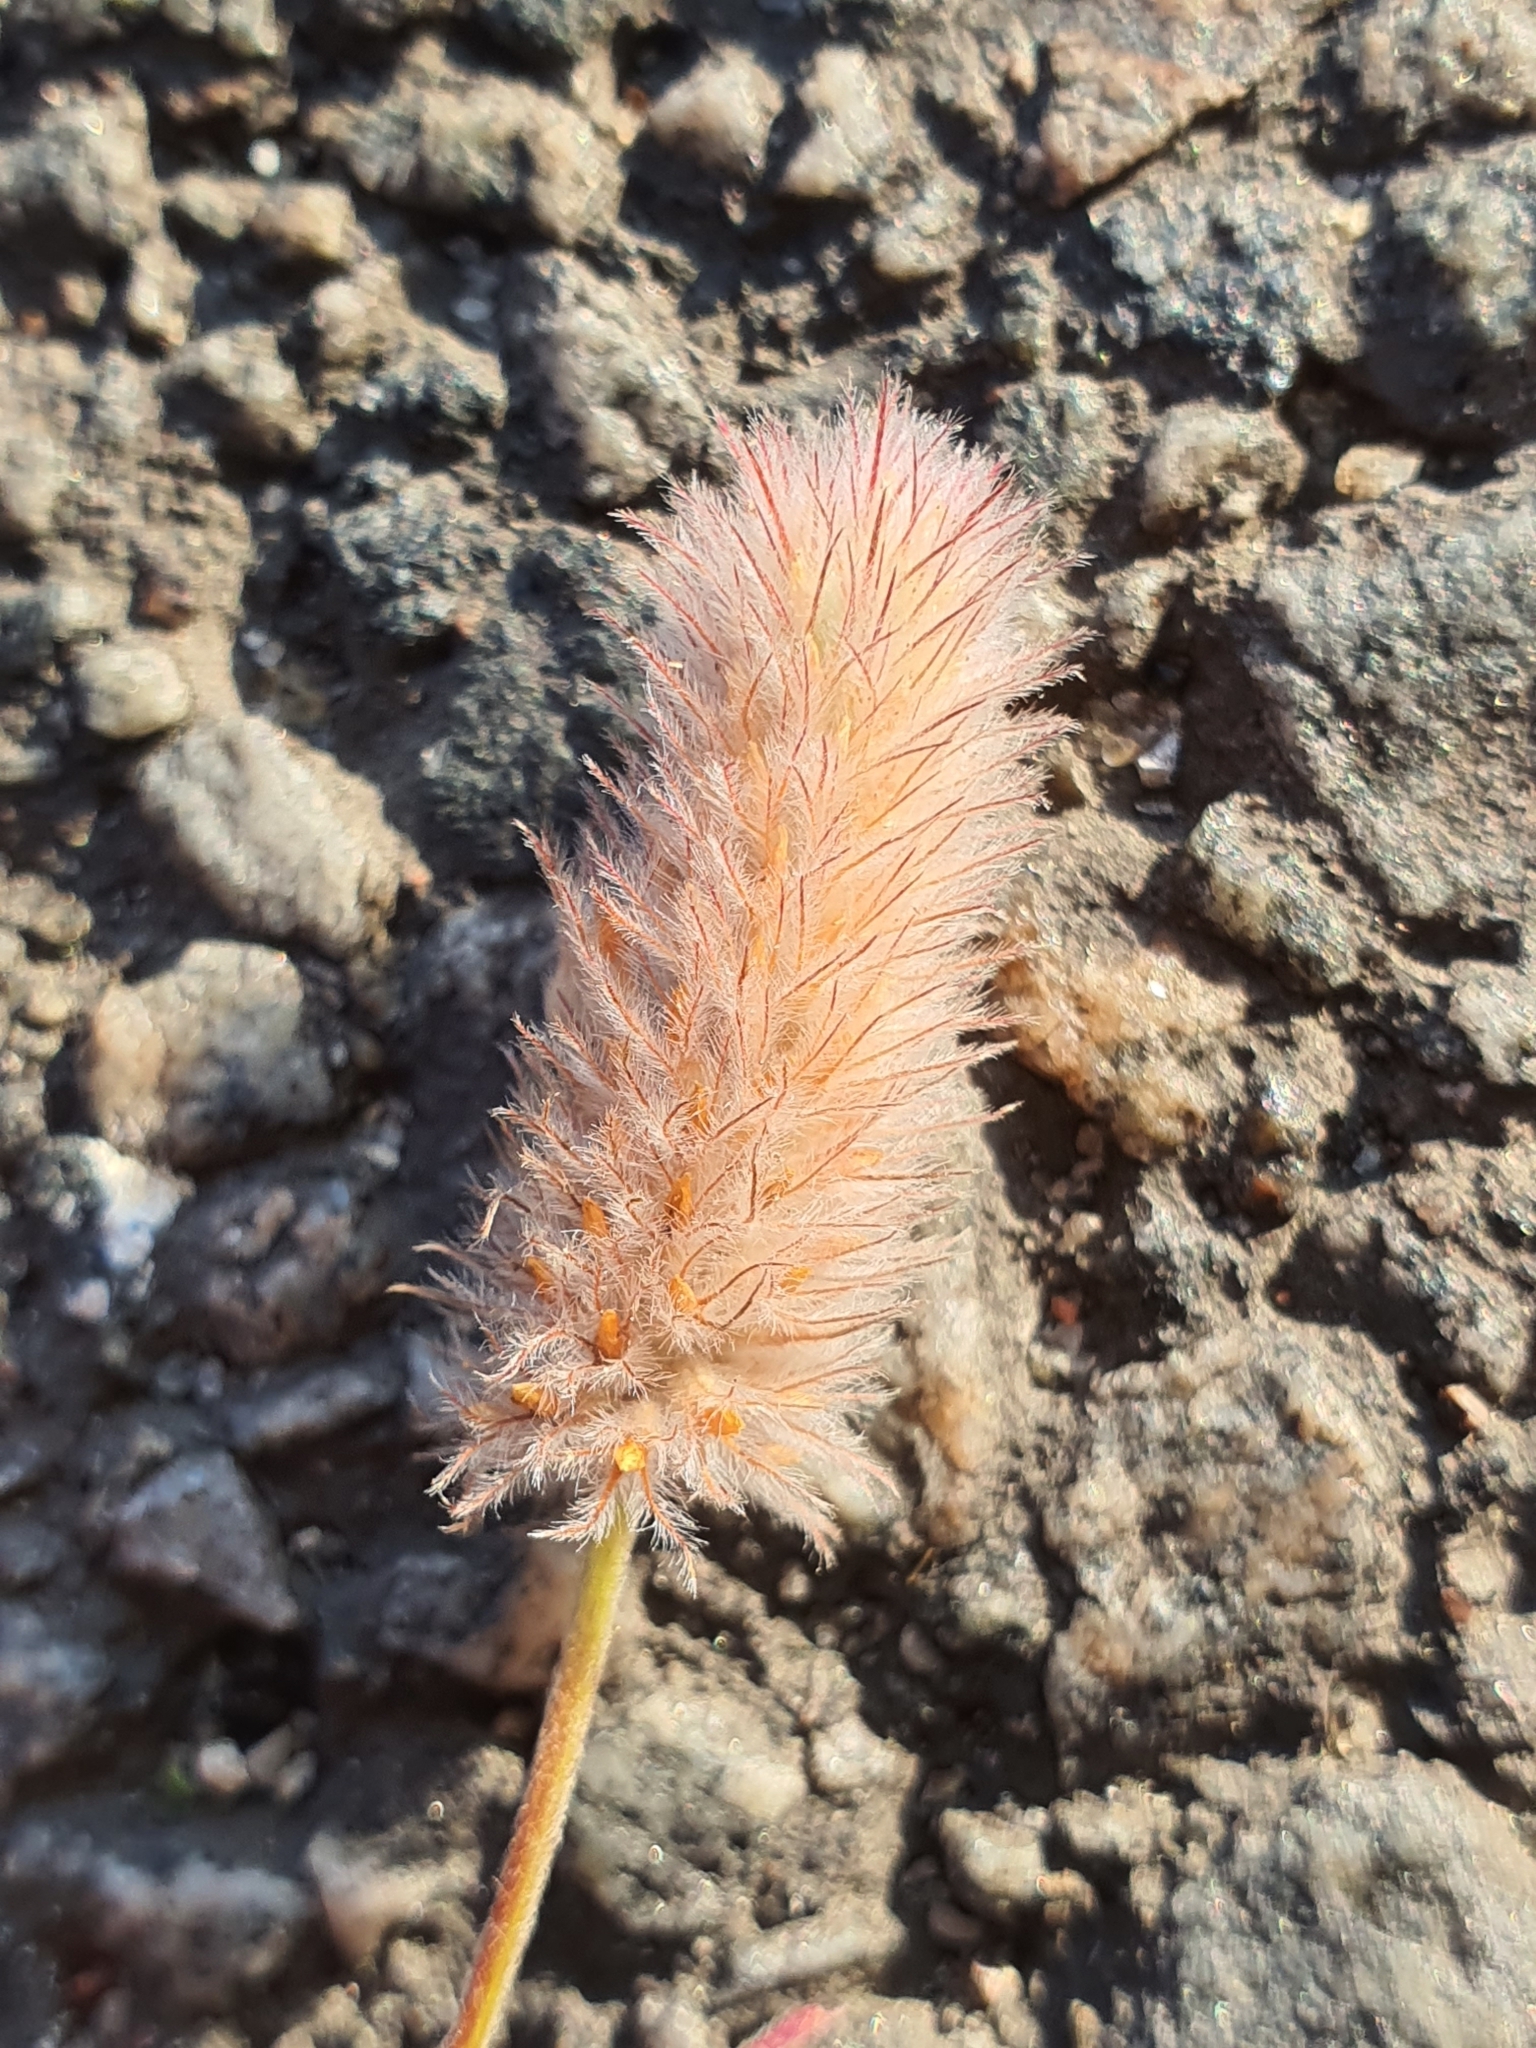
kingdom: Plantae
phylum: Tracheophyta
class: Magnoliopsida
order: Fabales
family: Fabaceae
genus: Trifolium
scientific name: Trifolium arvense
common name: Hare's-foot clover
